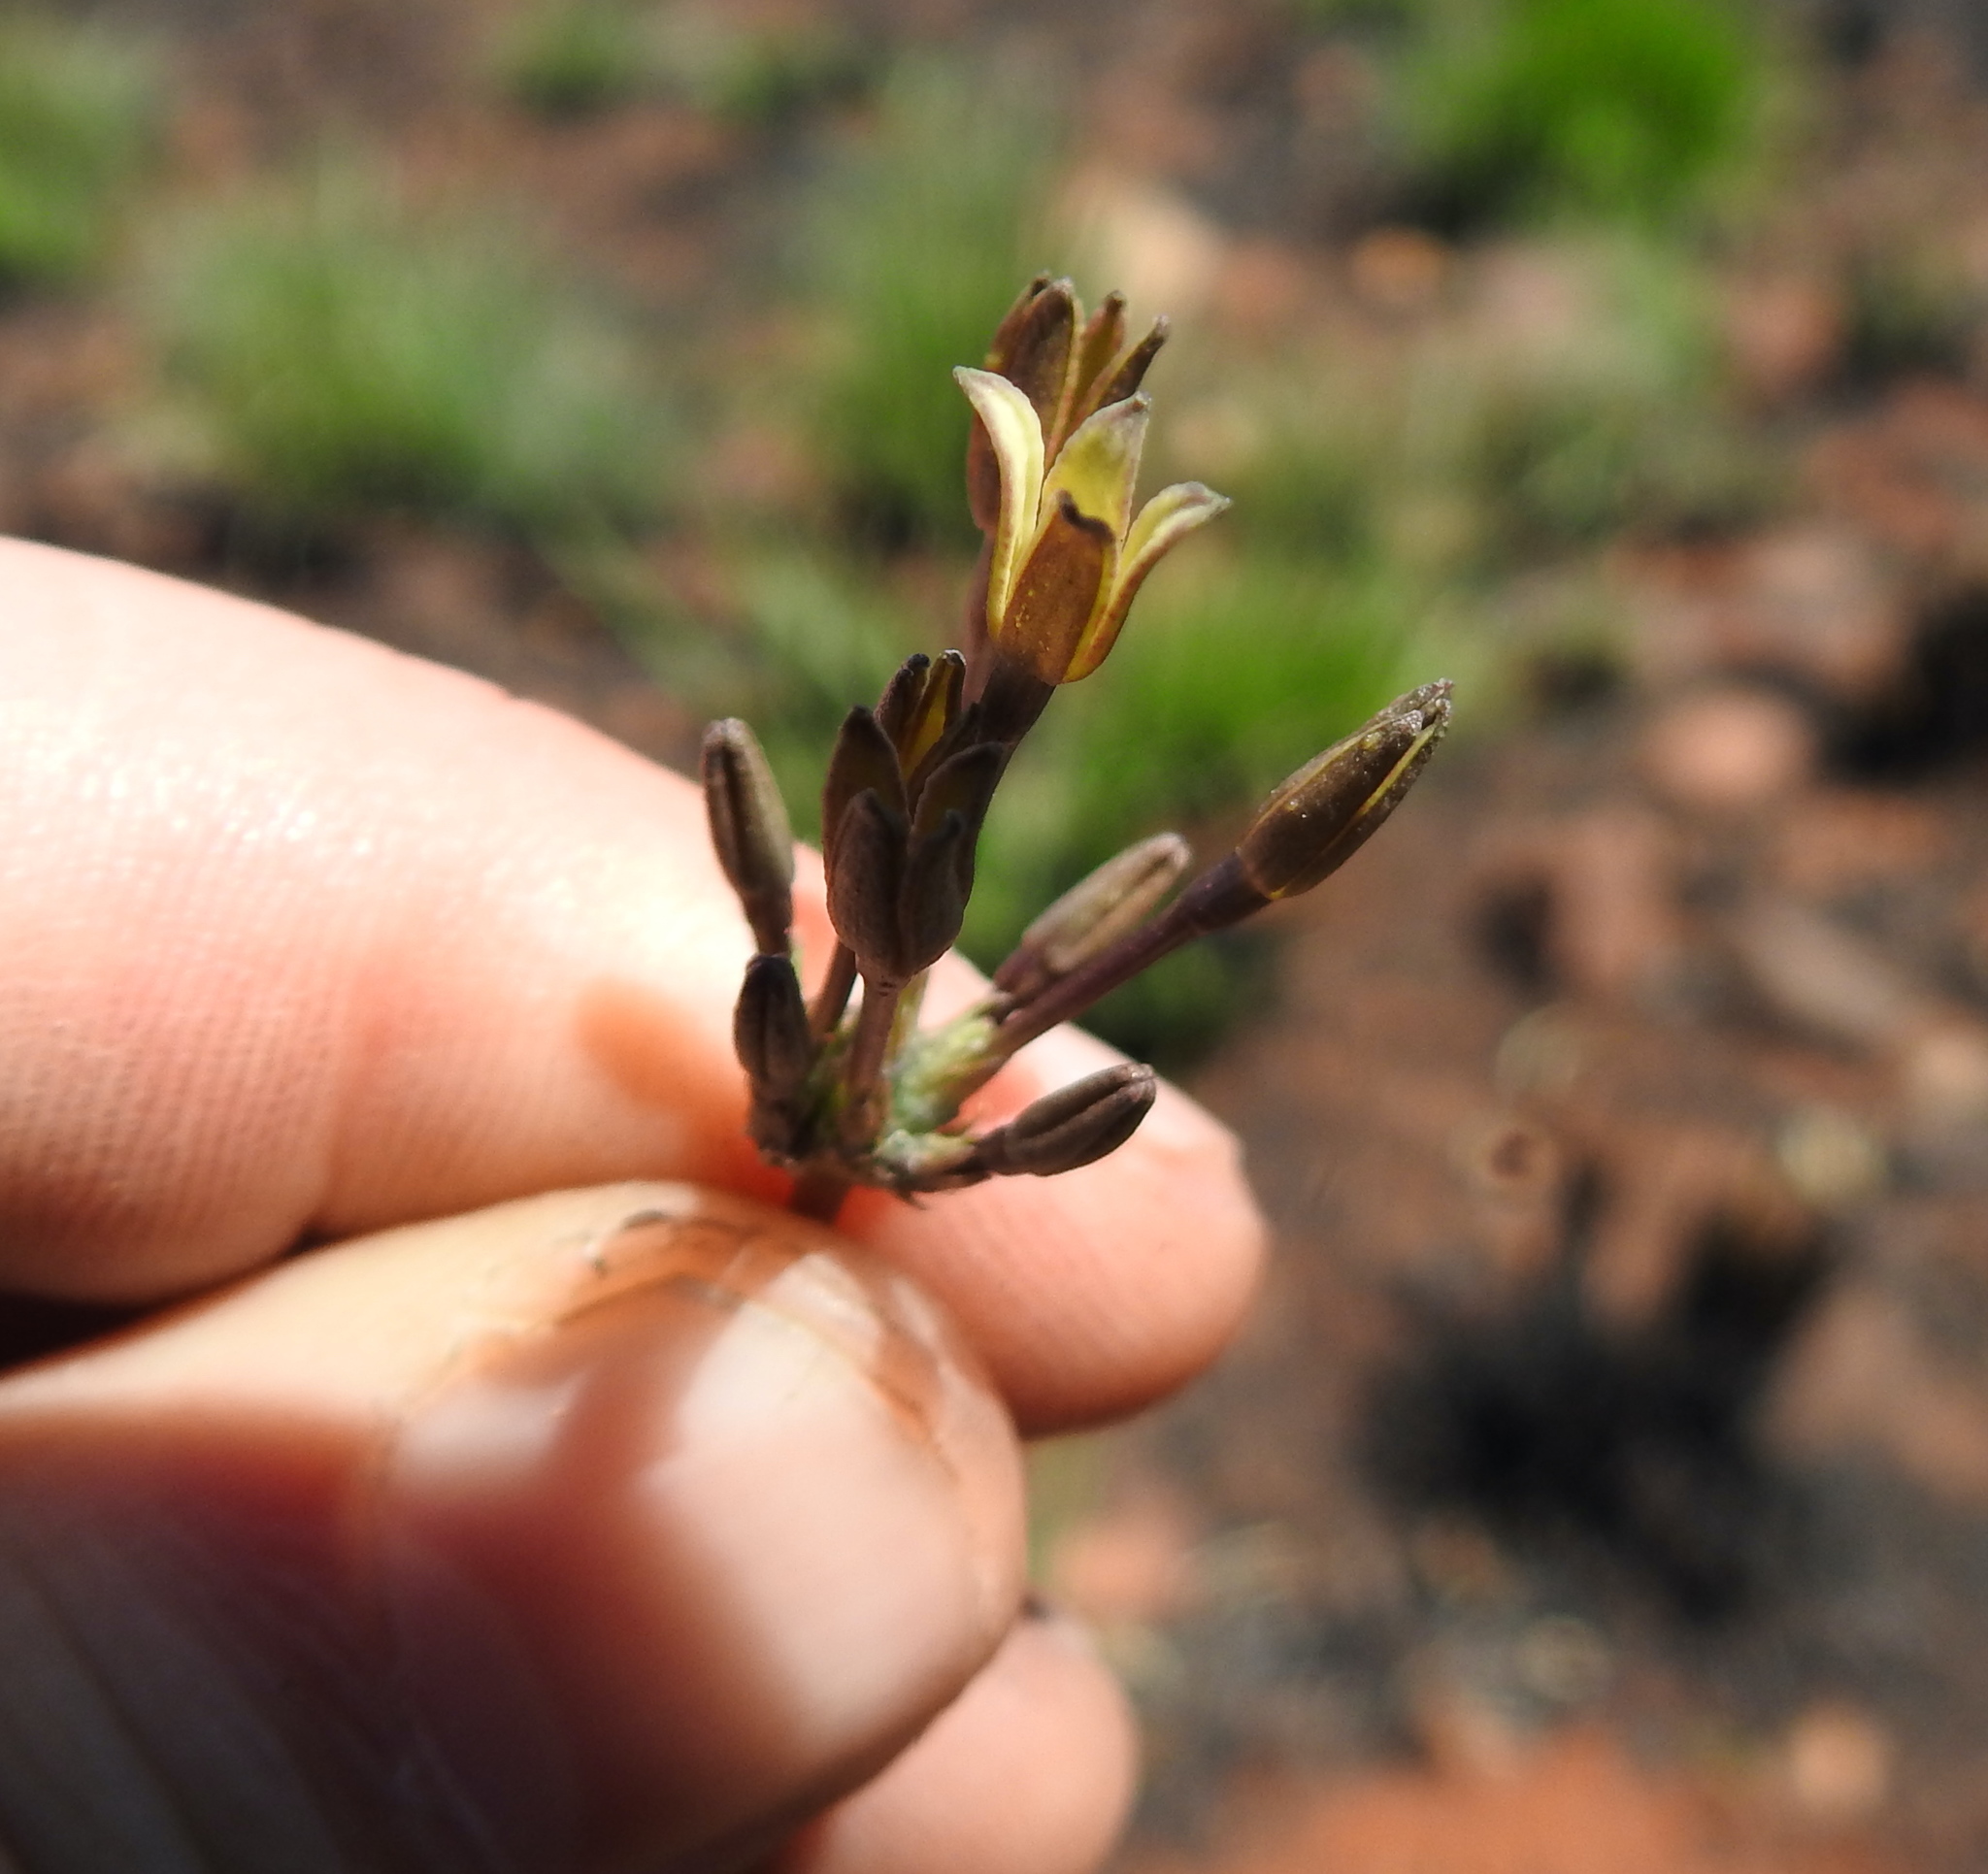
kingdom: Plantae
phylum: Tracheophyta
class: Magnoliopsida
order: Gentianales
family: Rubiaceae
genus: Kohautia
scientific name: Kohautia amatymbica
